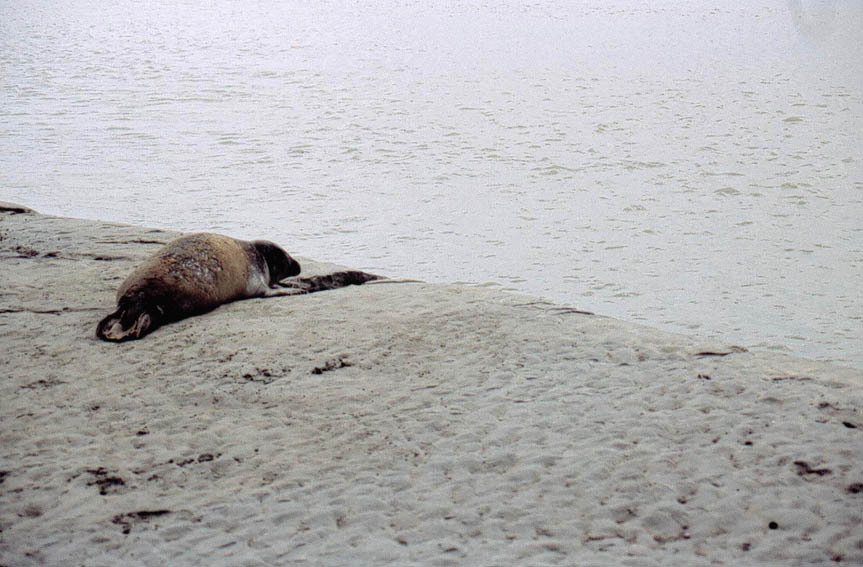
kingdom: Animalia
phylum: Chordata
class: Mammalia
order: Carnivora
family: Phocidae
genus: Phoca
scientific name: Phoca vitulina
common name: Harbor seal
